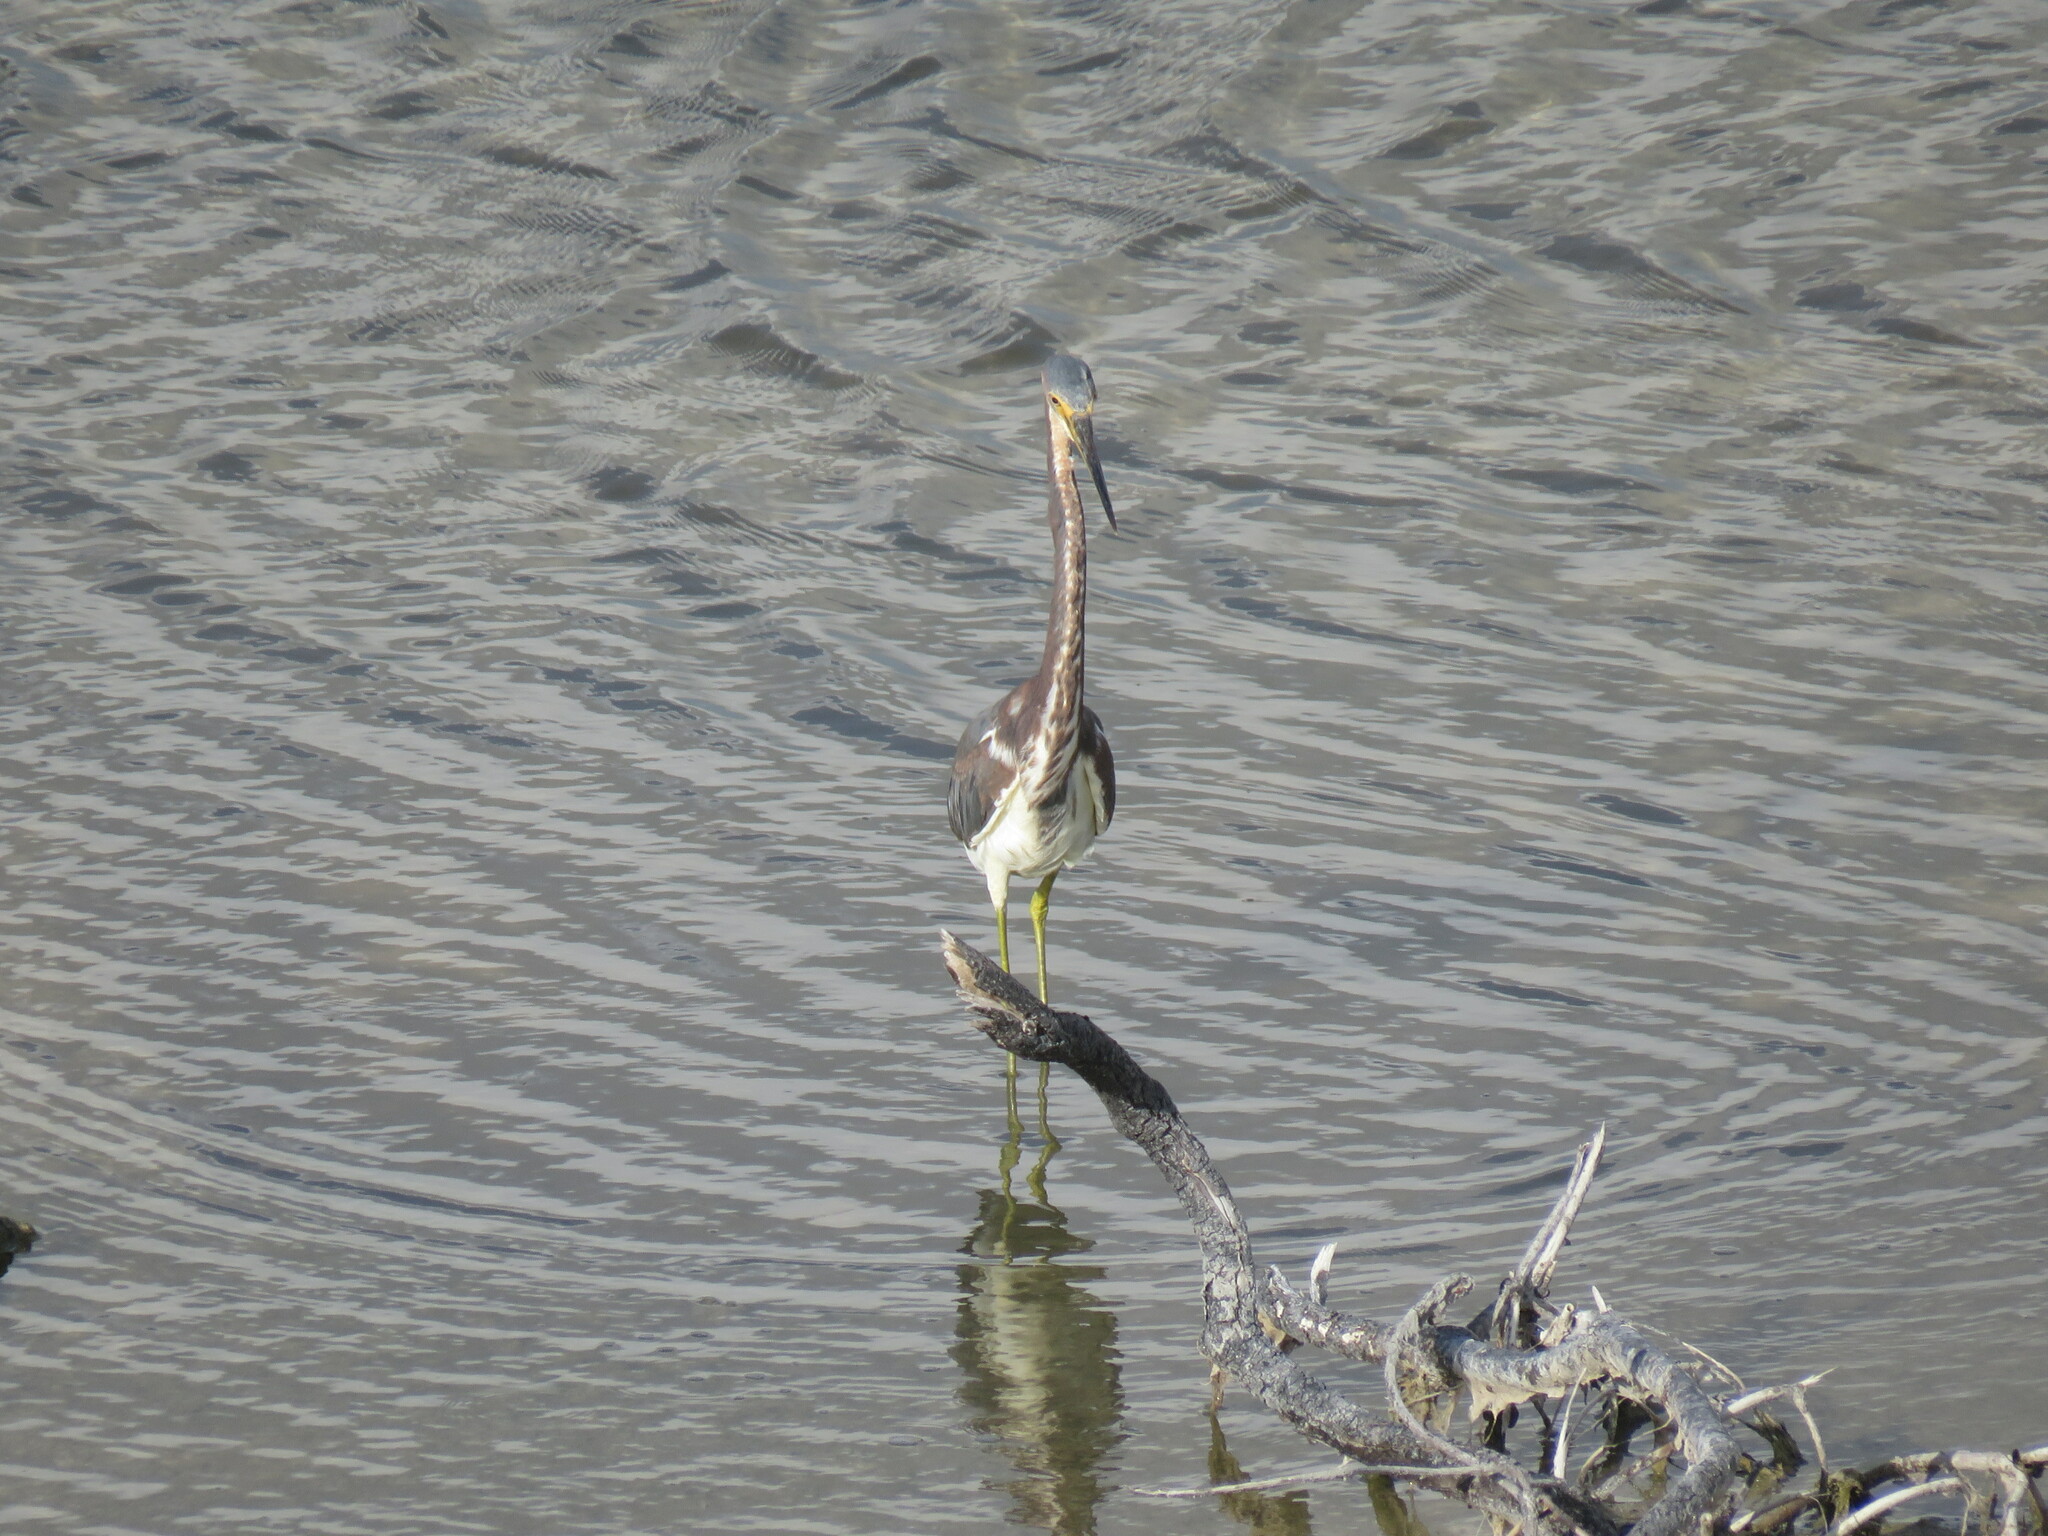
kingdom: Animalia
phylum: Chordata
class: Aves
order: Pelecaniformes
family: Ardeidae
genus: Egretta
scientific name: Egretta tricolor
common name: Tricolored heron
